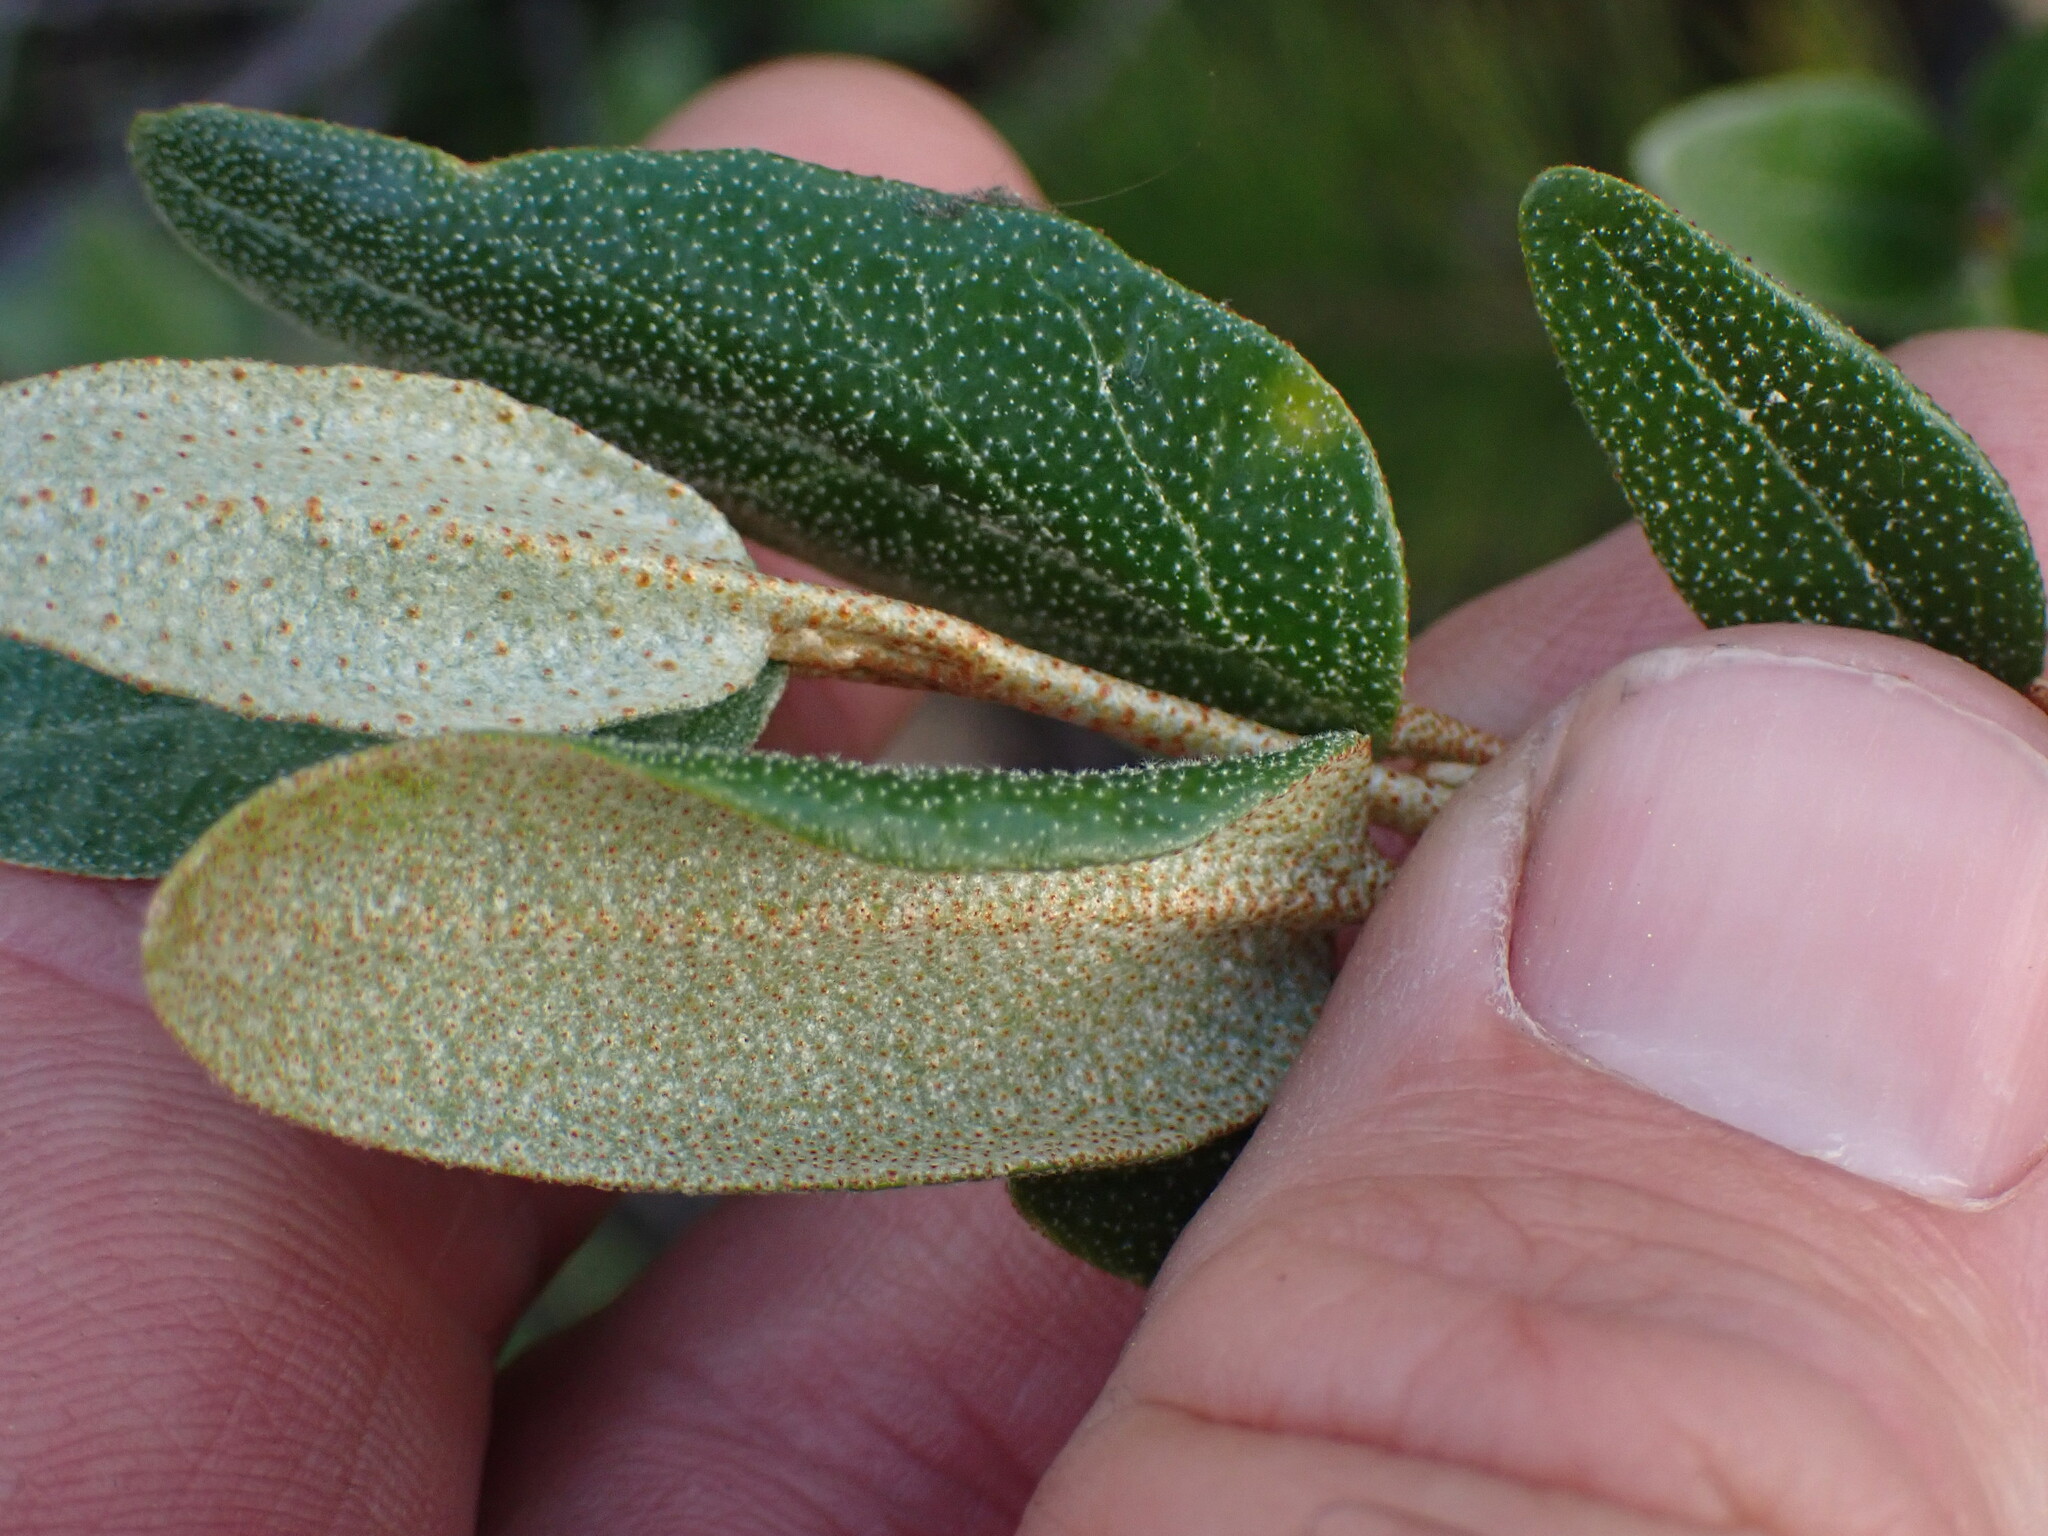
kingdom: Plantae
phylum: Tracheophyta
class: Magnoliopsida
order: Rosales
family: Elaeagnaceae
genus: Shepherdia
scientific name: Shepherdia canadensis
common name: Soapberry
